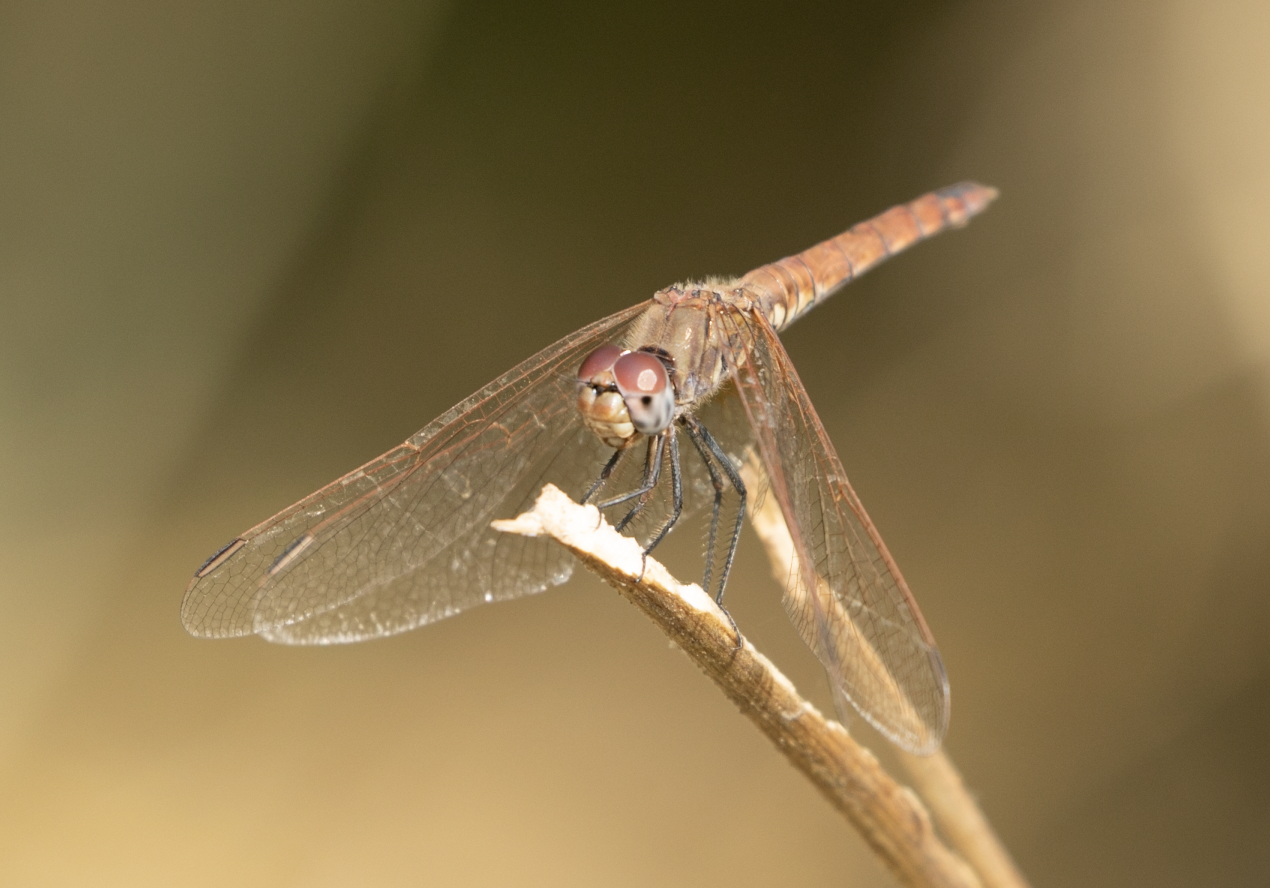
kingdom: Animalia
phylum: Arthropoda
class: Insecta
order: Odonata
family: Libellulidae
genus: Trithemis
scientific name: Trithemis annulata
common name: Violet dropwing
